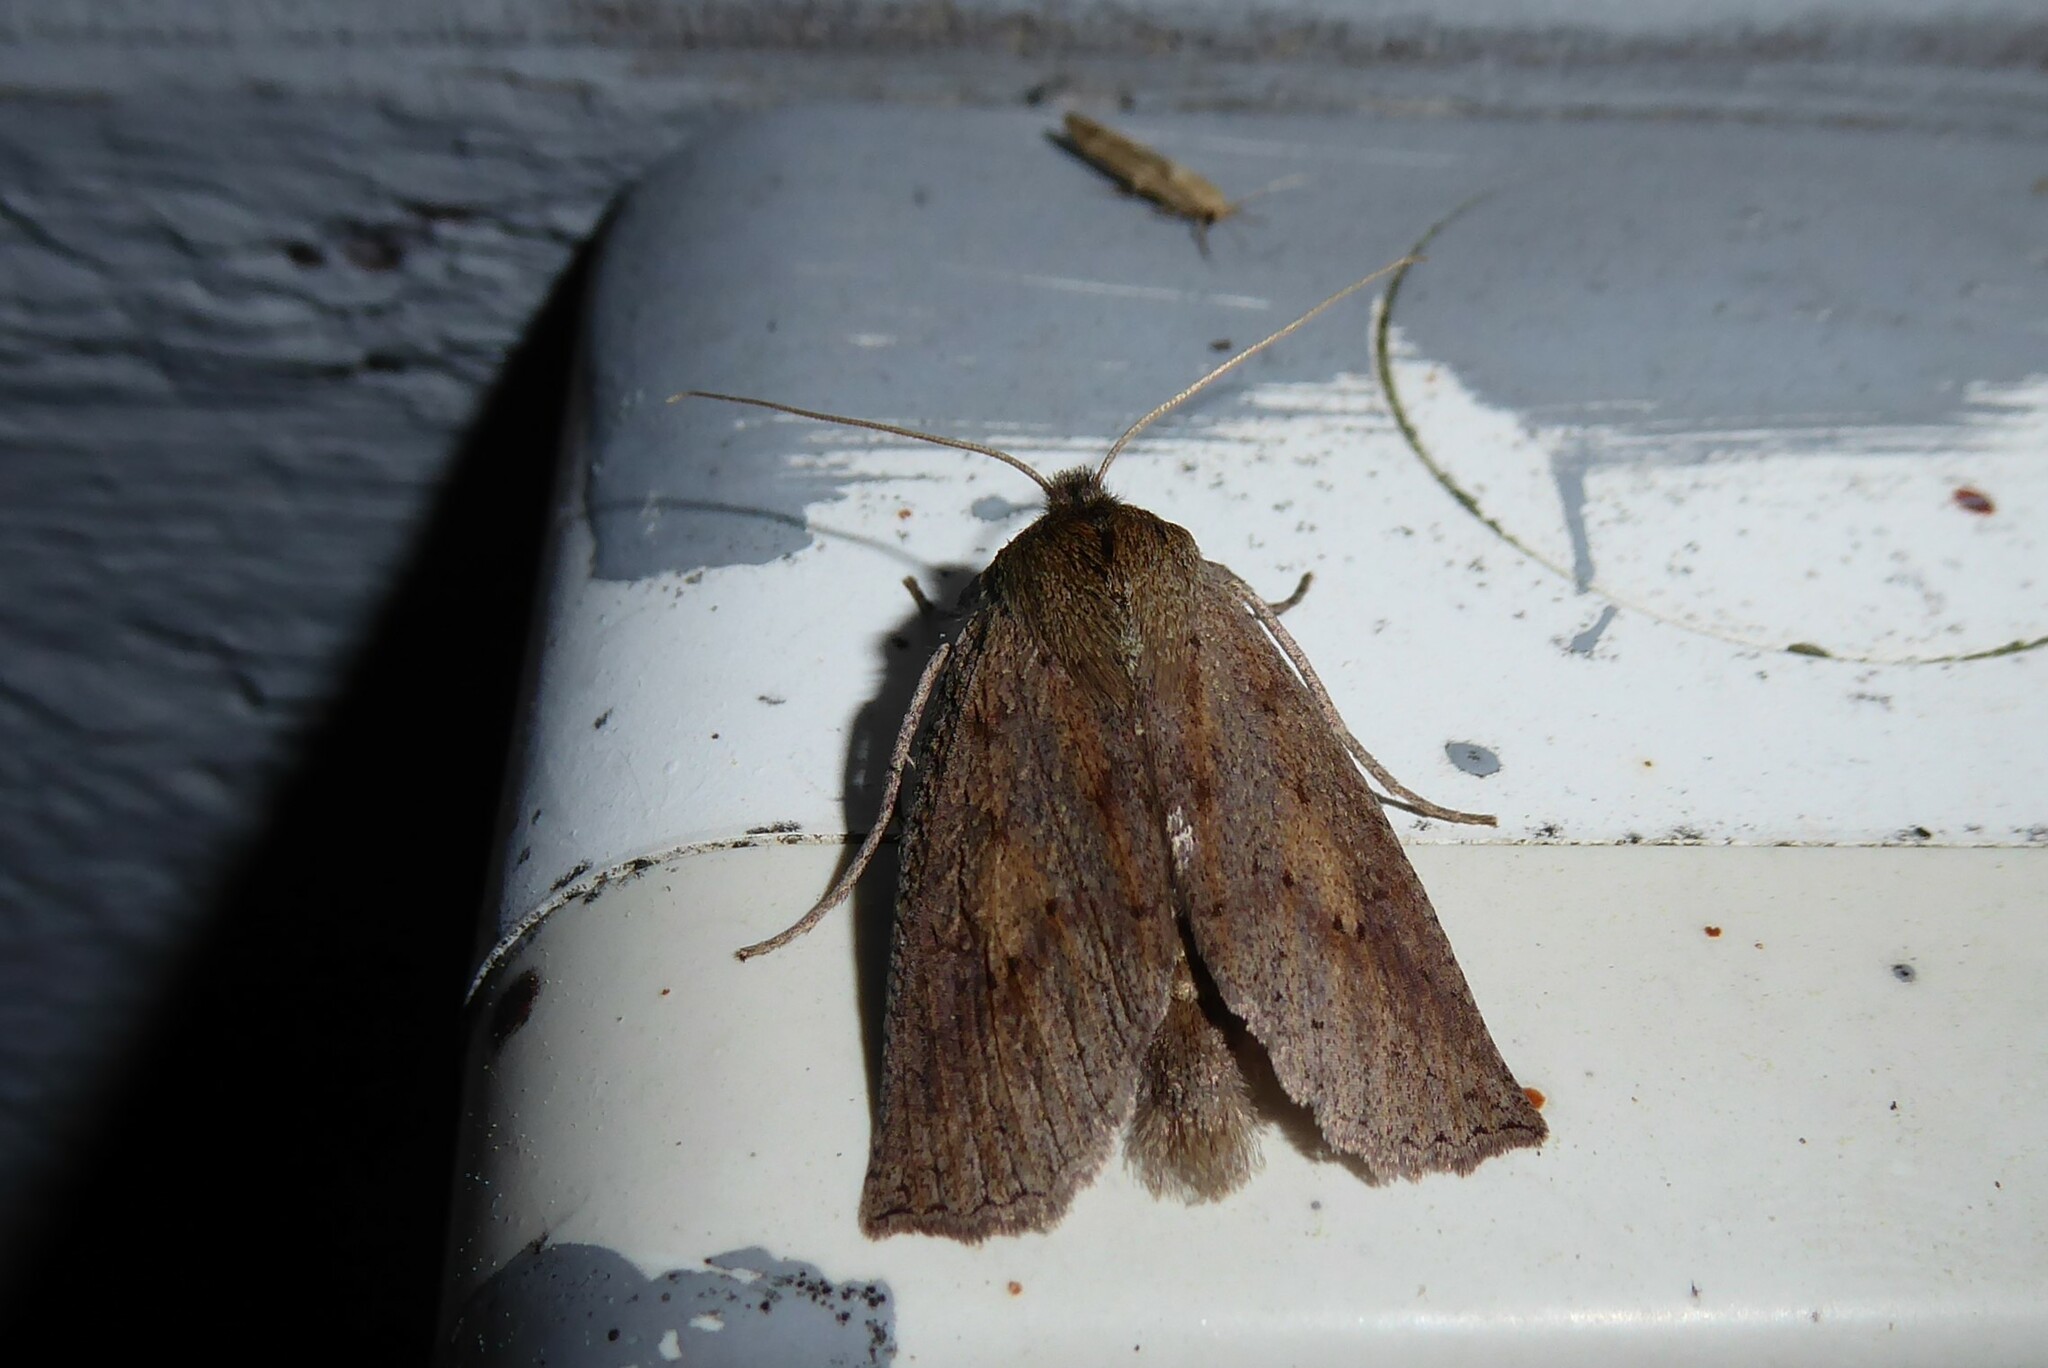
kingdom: Animalia
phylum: Arthropoda
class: Insecta
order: Lepidoptera
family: Geometridae
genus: Declana
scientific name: Declana leptomera
